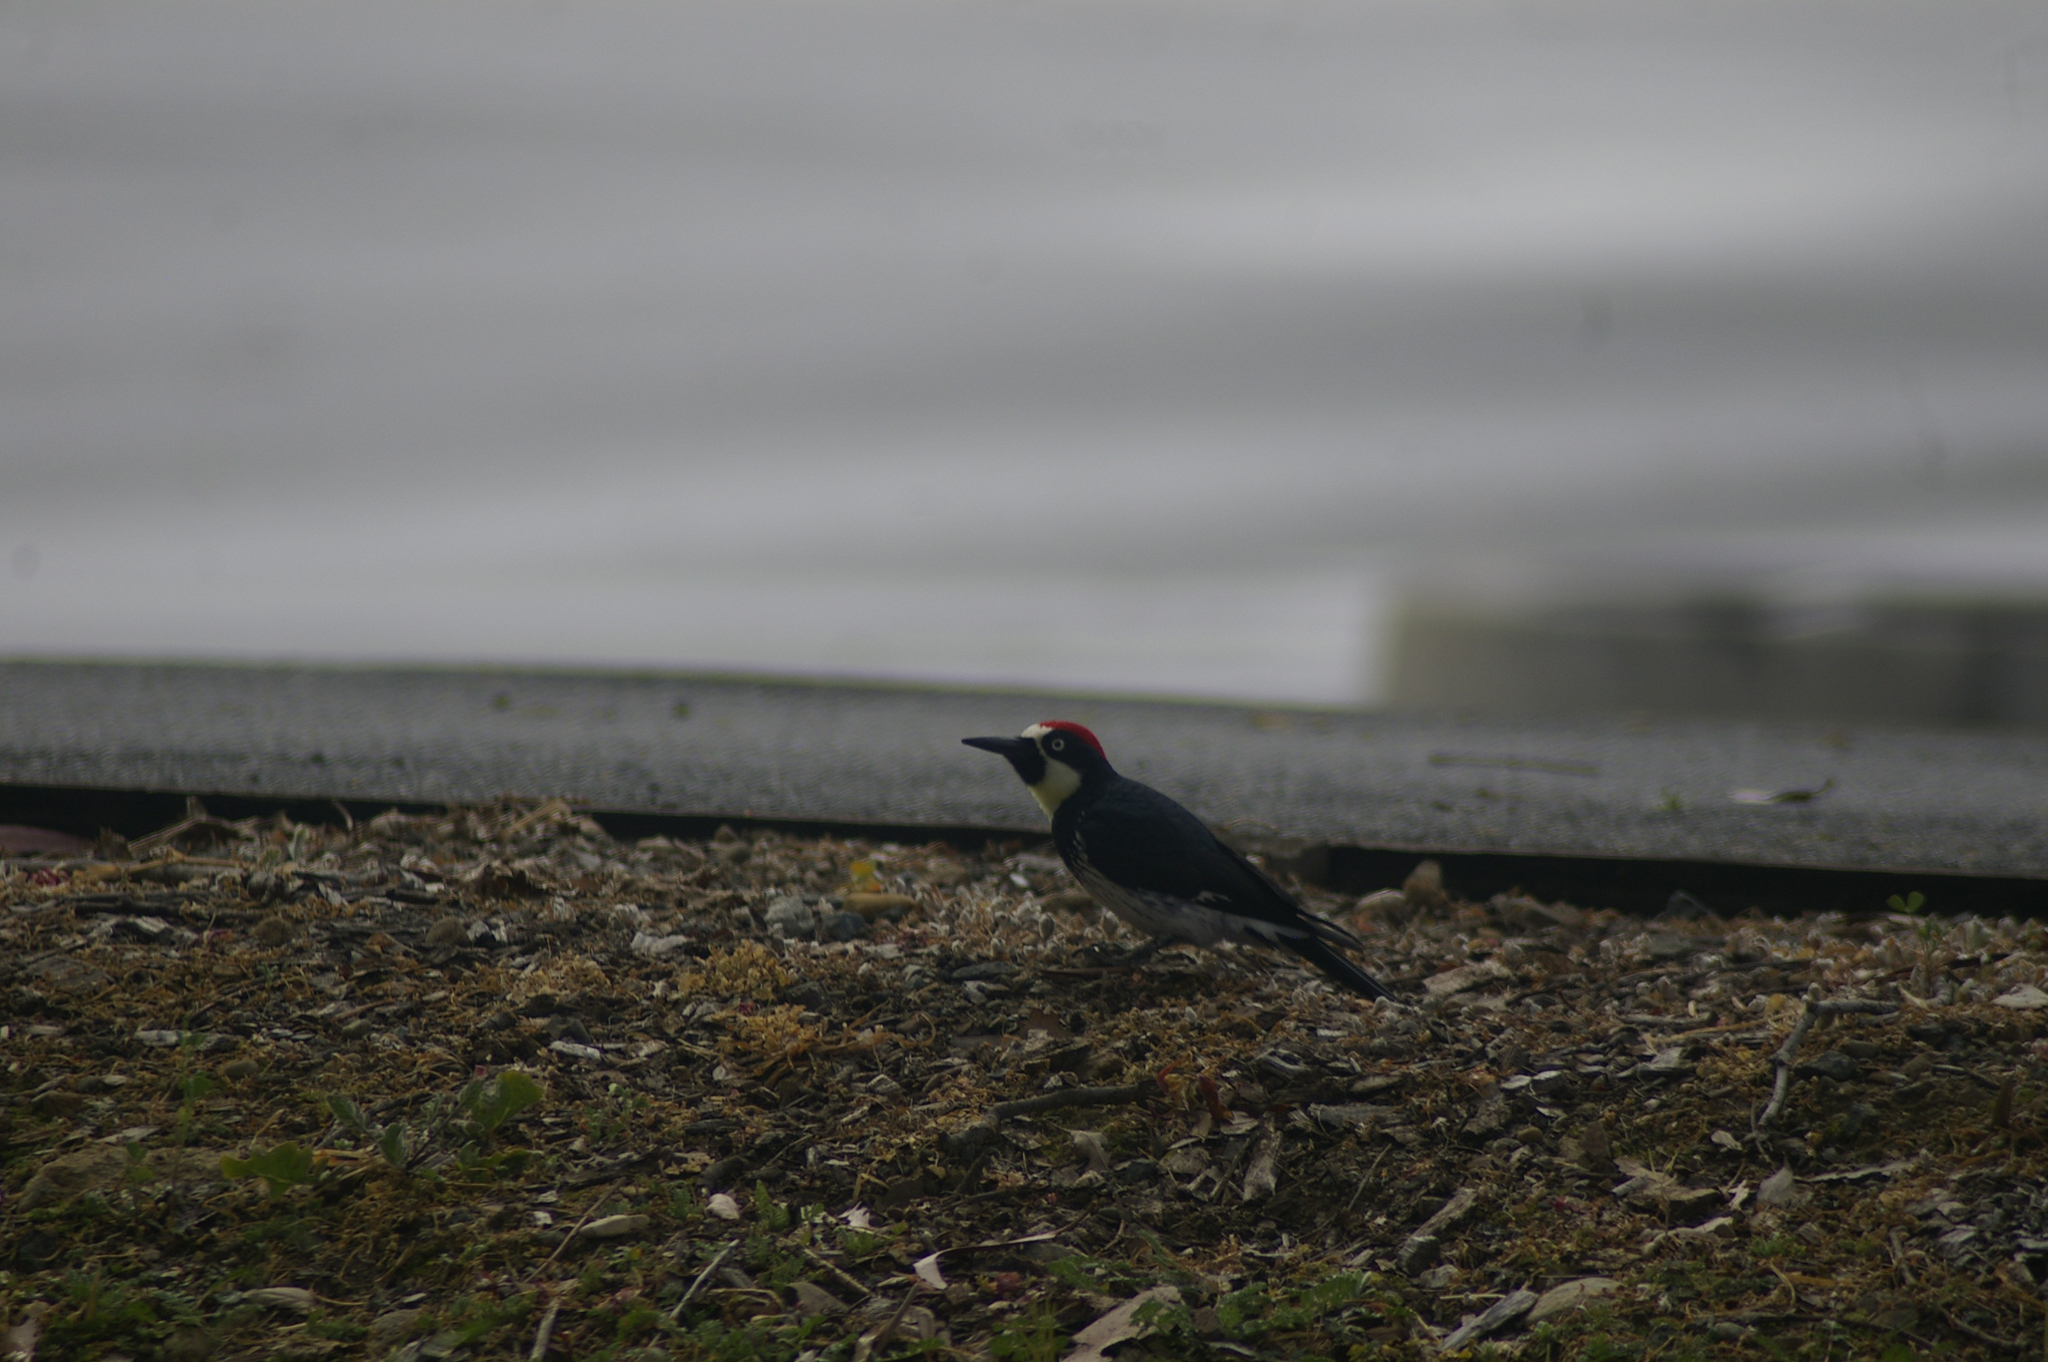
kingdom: Animalia
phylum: Chordata
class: Aves
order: Piciformes
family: Picidae
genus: Melanerpes
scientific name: Melanerpes formicivorus
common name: Acorn woodpecker
